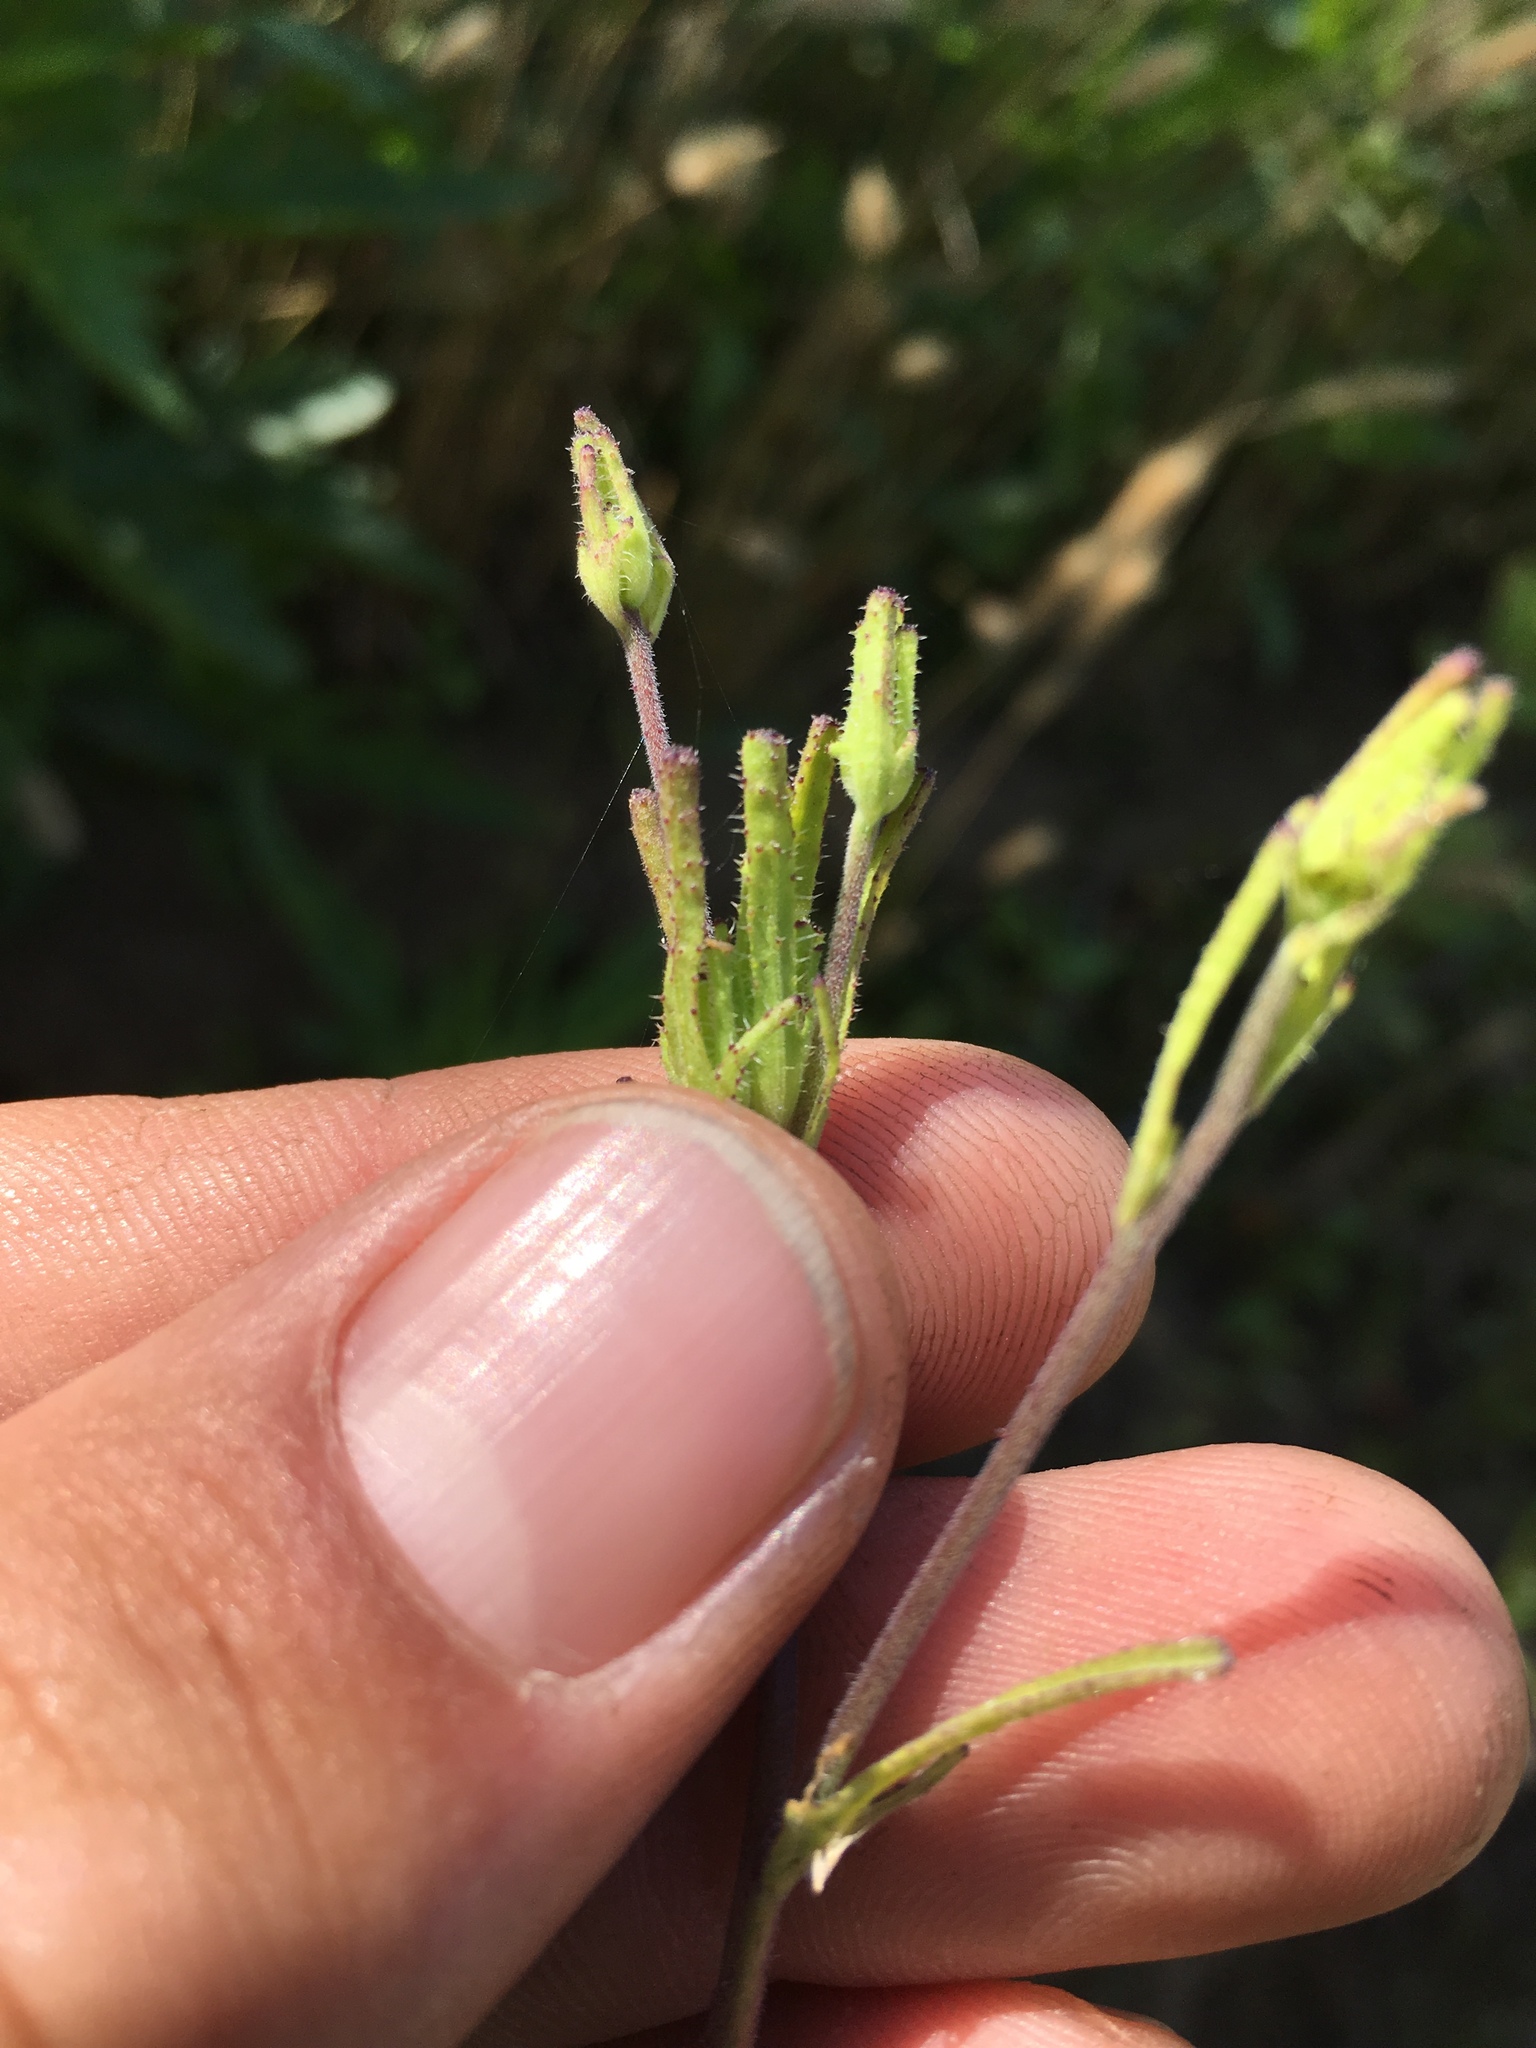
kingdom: Plantae
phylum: Tracheophyta
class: Magnoliopsida
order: Lamiales
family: Orobanchaceae
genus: Cordylanthus
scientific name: Cordylanthus rigidus
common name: Stiff-branch bird's-beak
